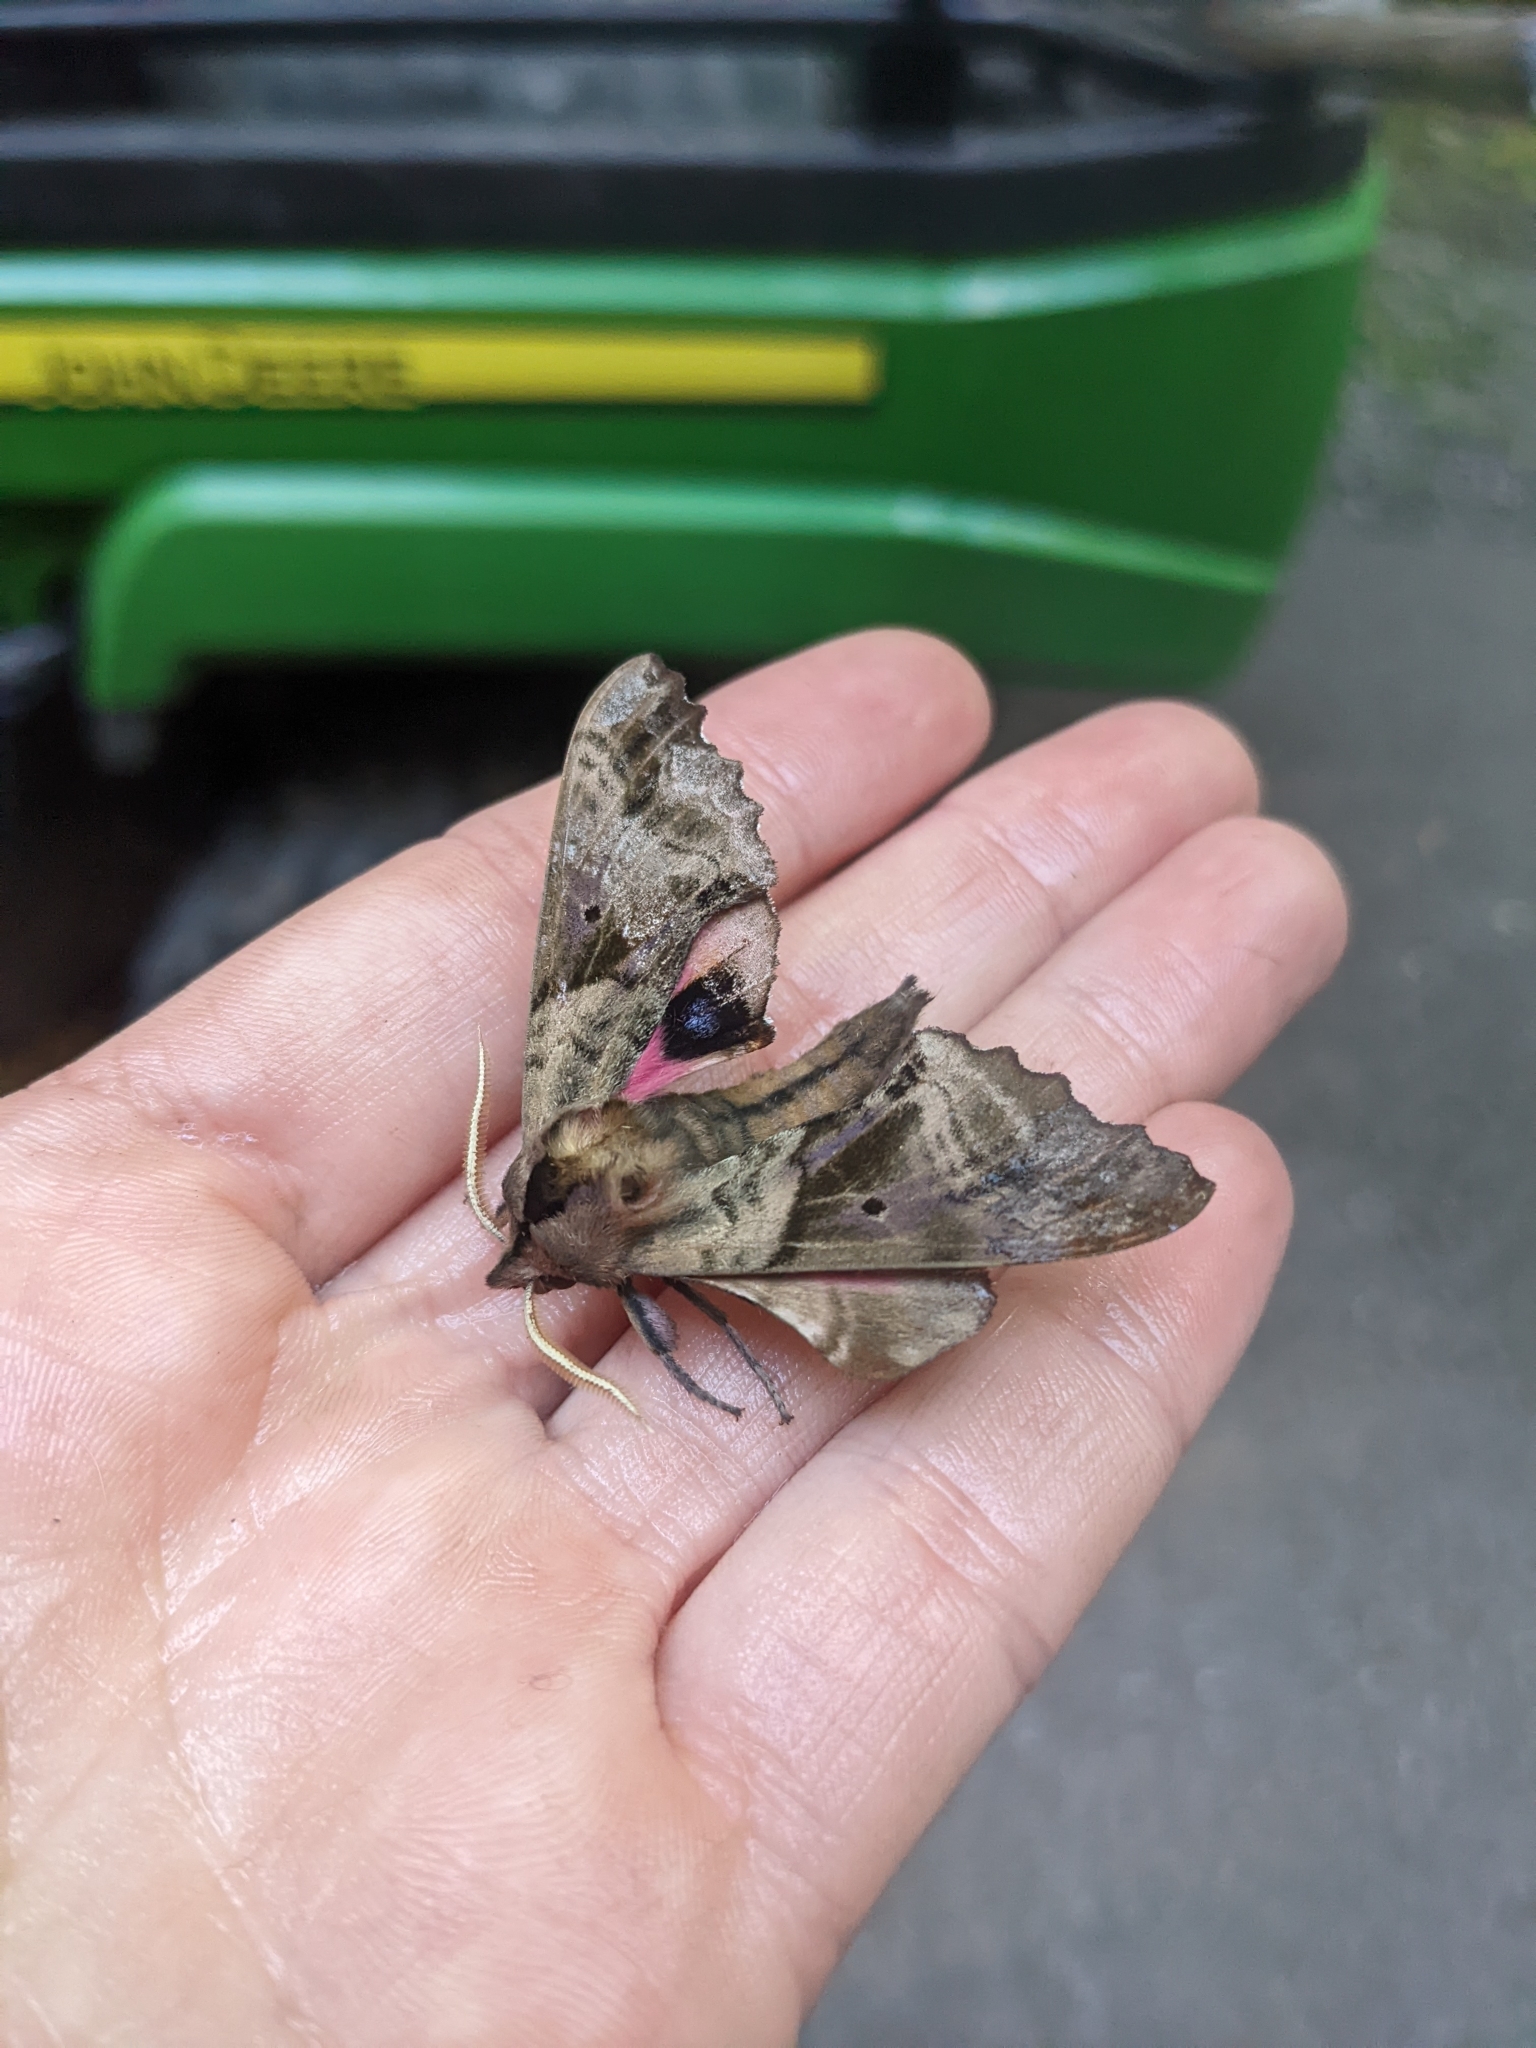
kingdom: Animalia
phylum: Arthropoda
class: Insecta
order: Lepidoptera
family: Sphingidae
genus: Paonias
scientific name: Paonias excaecata
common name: Blind-eyed sphinx
